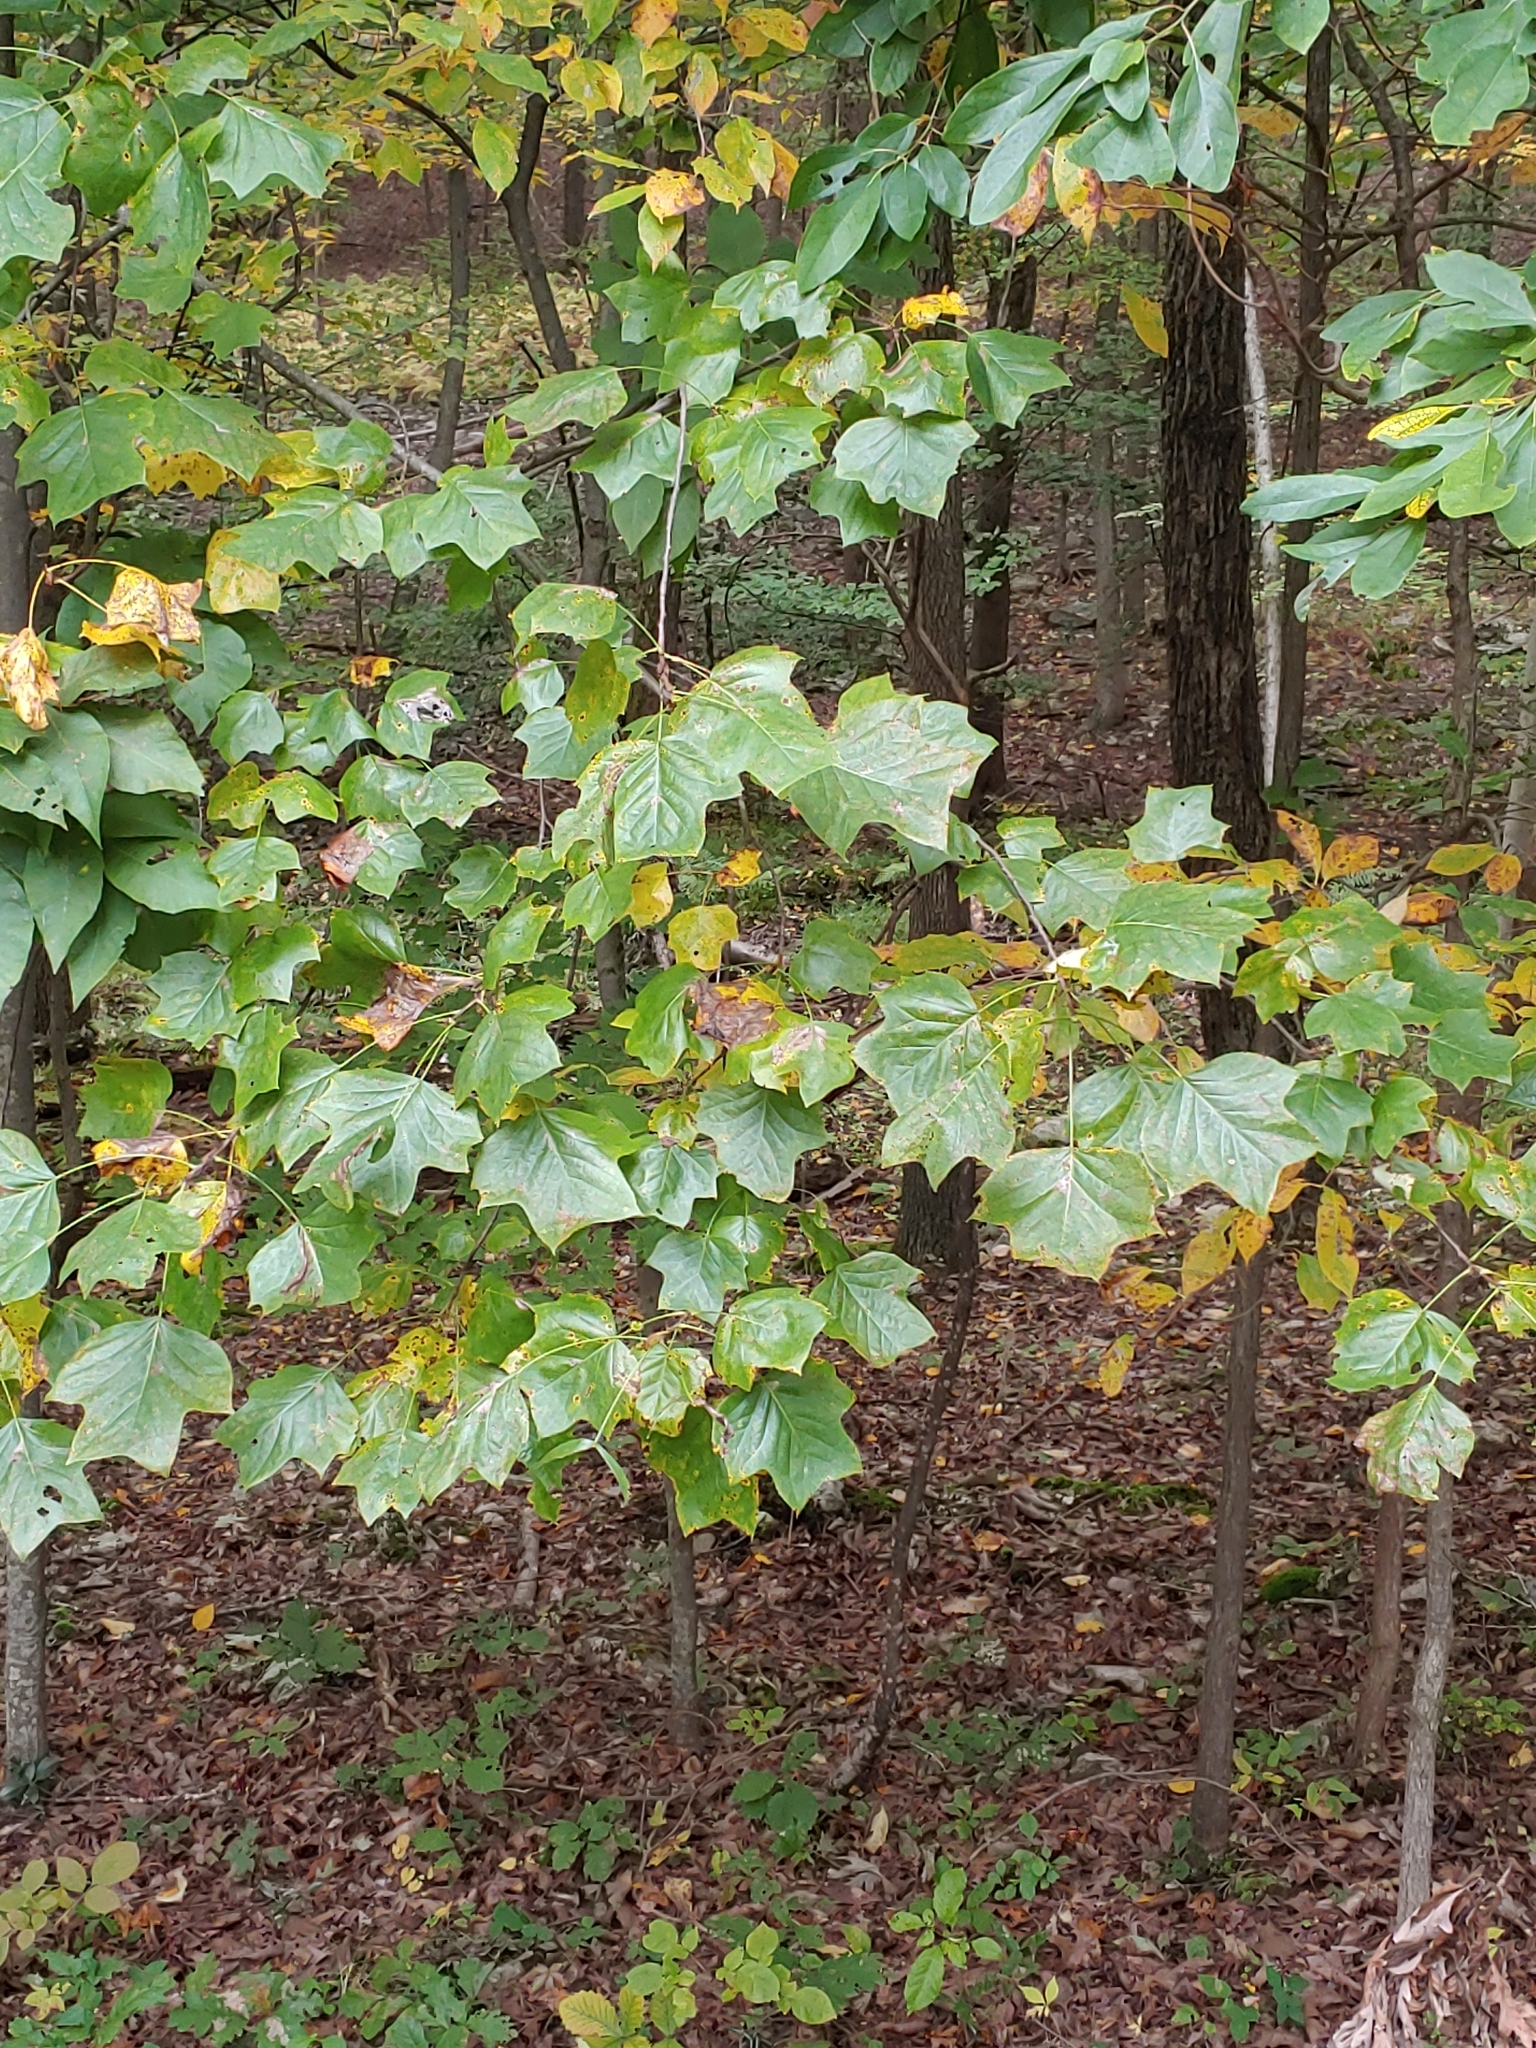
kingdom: Plantae
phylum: Tracheophyta
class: Magnoliopsida
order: Magnoliales
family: Magnoliaceae
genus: Liriodendron
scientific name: Liriodendron tulipifera
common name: Tulip tree
